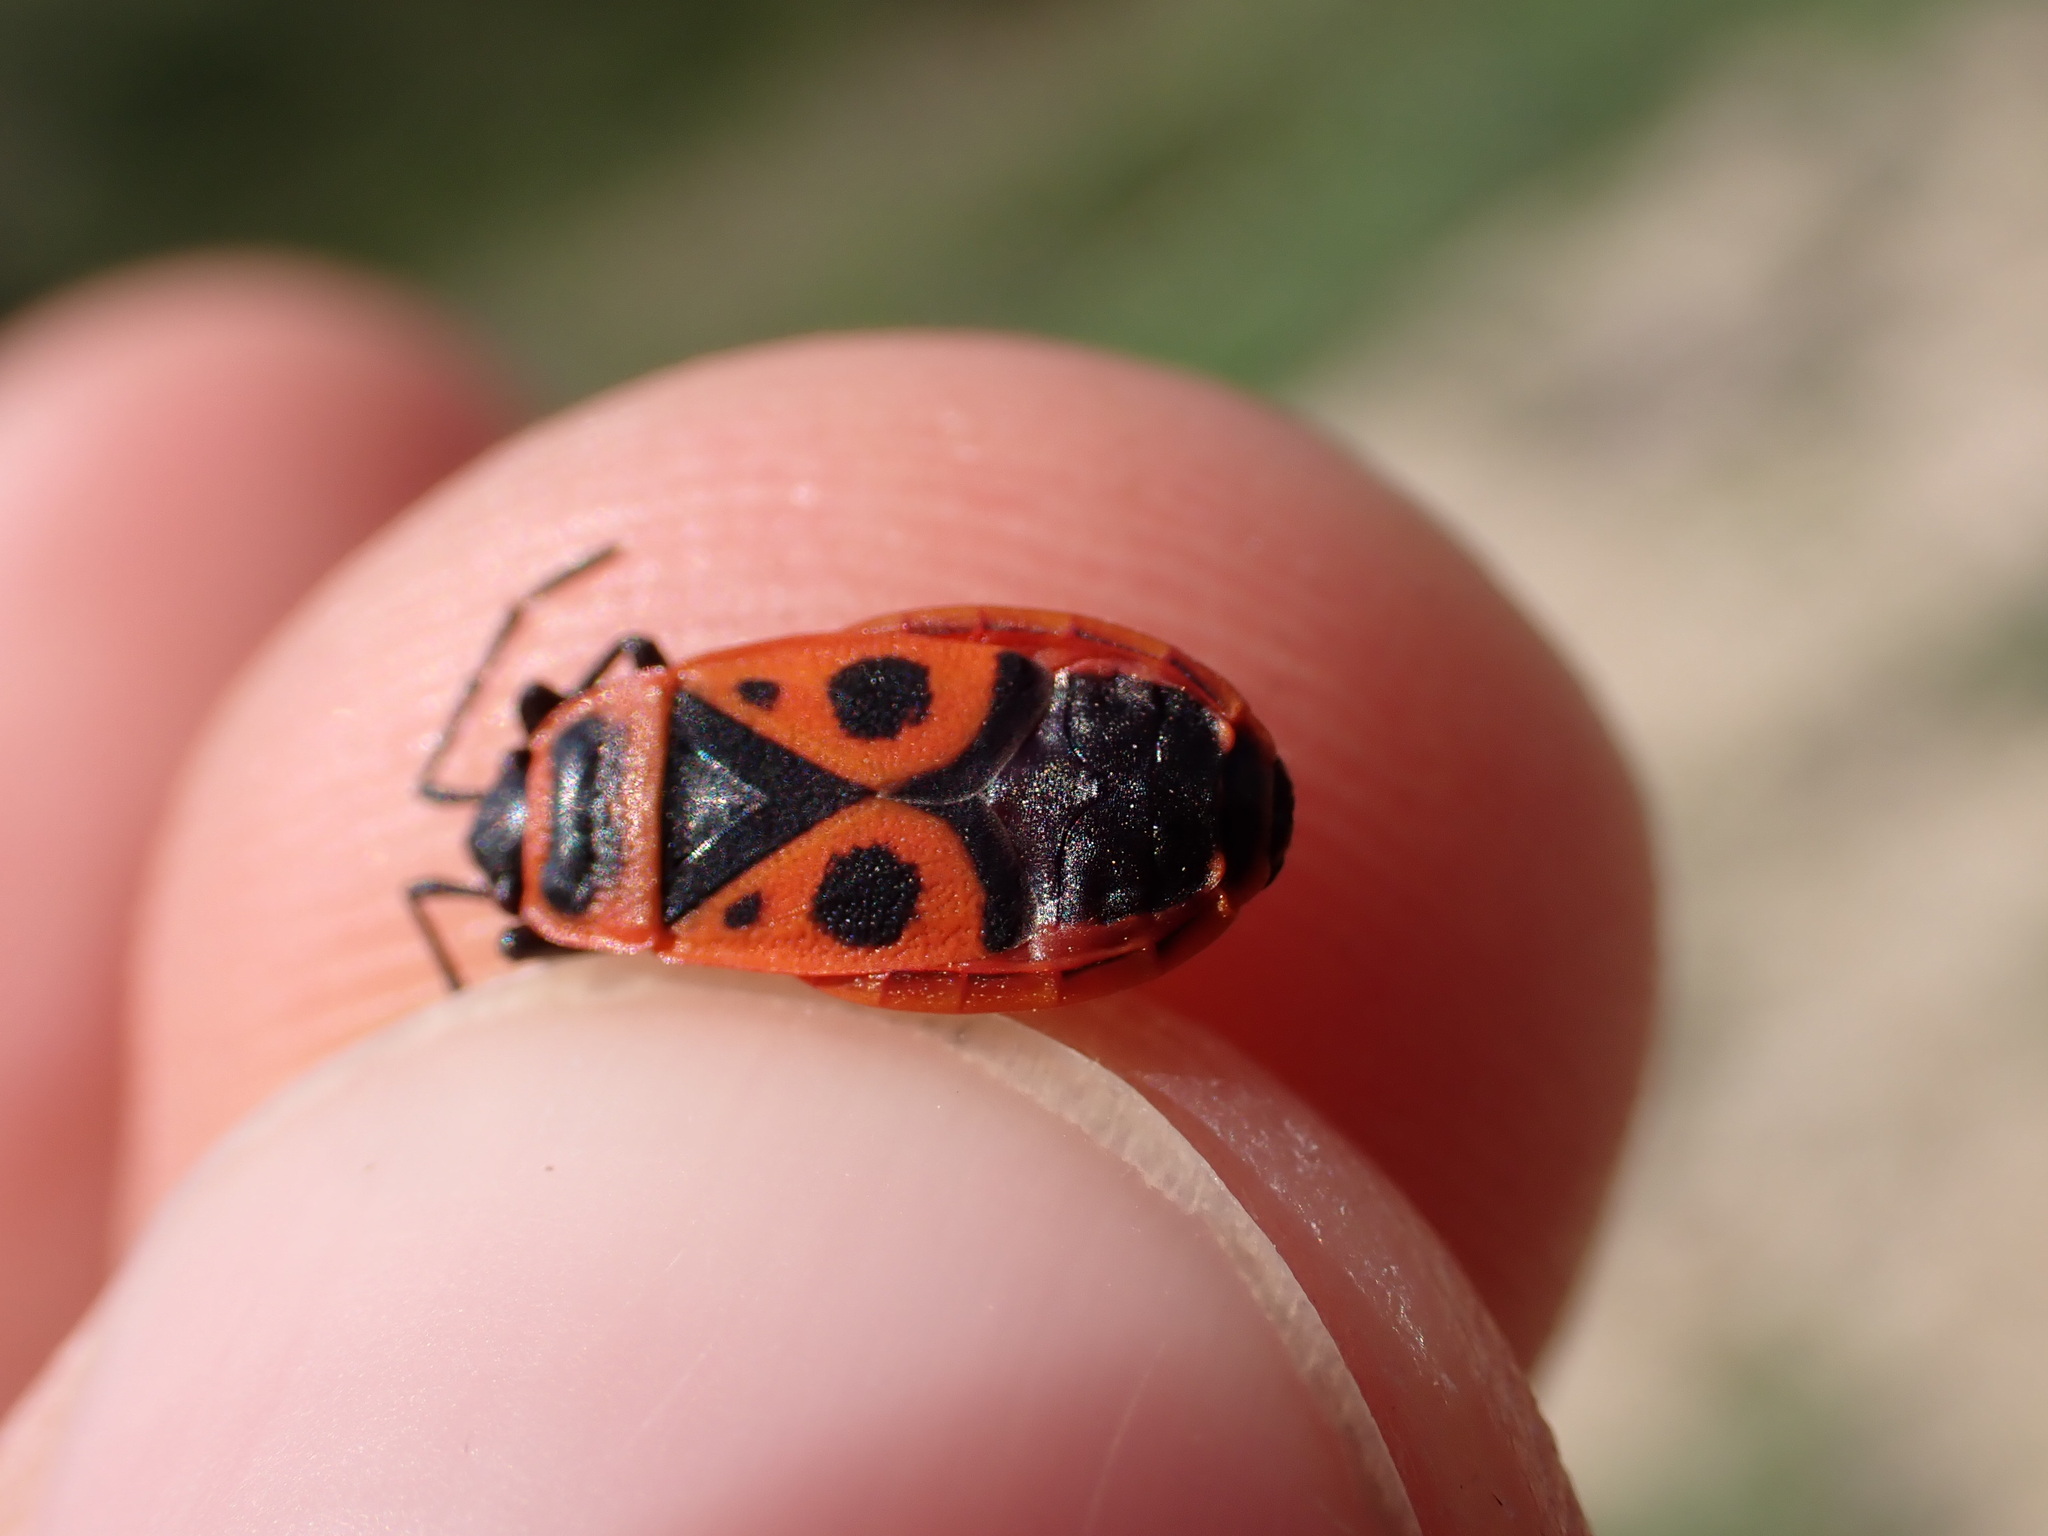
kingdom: Animalia
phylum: Arthropoda
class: Insecta
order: Hemiptera
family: Pyrrhocoridae
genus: Pyrrhocoris
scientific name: Pyrrhocoris apterus
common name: Firebug
